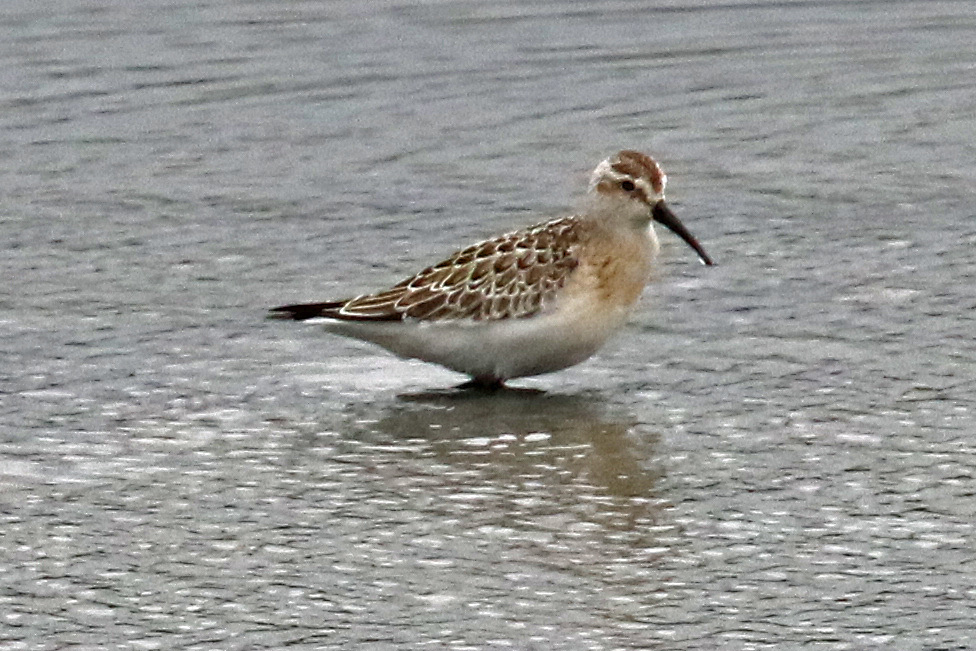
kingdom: Animalia
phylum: Chordata
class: Aves
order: Charadriiformes
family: Scolopacidae
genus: Calidris
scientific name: Calidris ferruginea
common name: Curlew sandpiper
